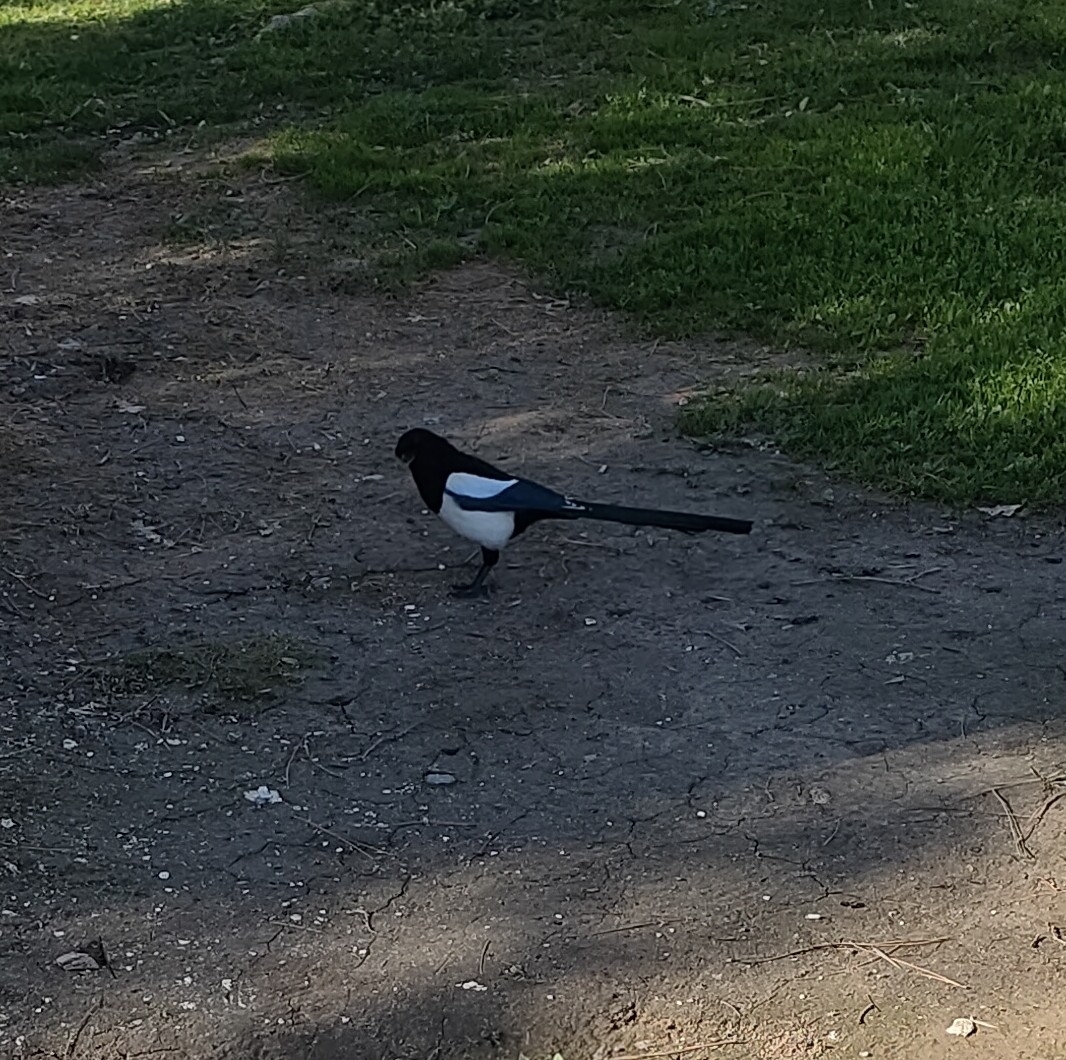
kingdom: Animalia
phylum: Chordata
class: Aves
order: Passeriformes
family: Corvidae
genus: Pica
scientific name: Pica pica
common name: Eurasian magpie
